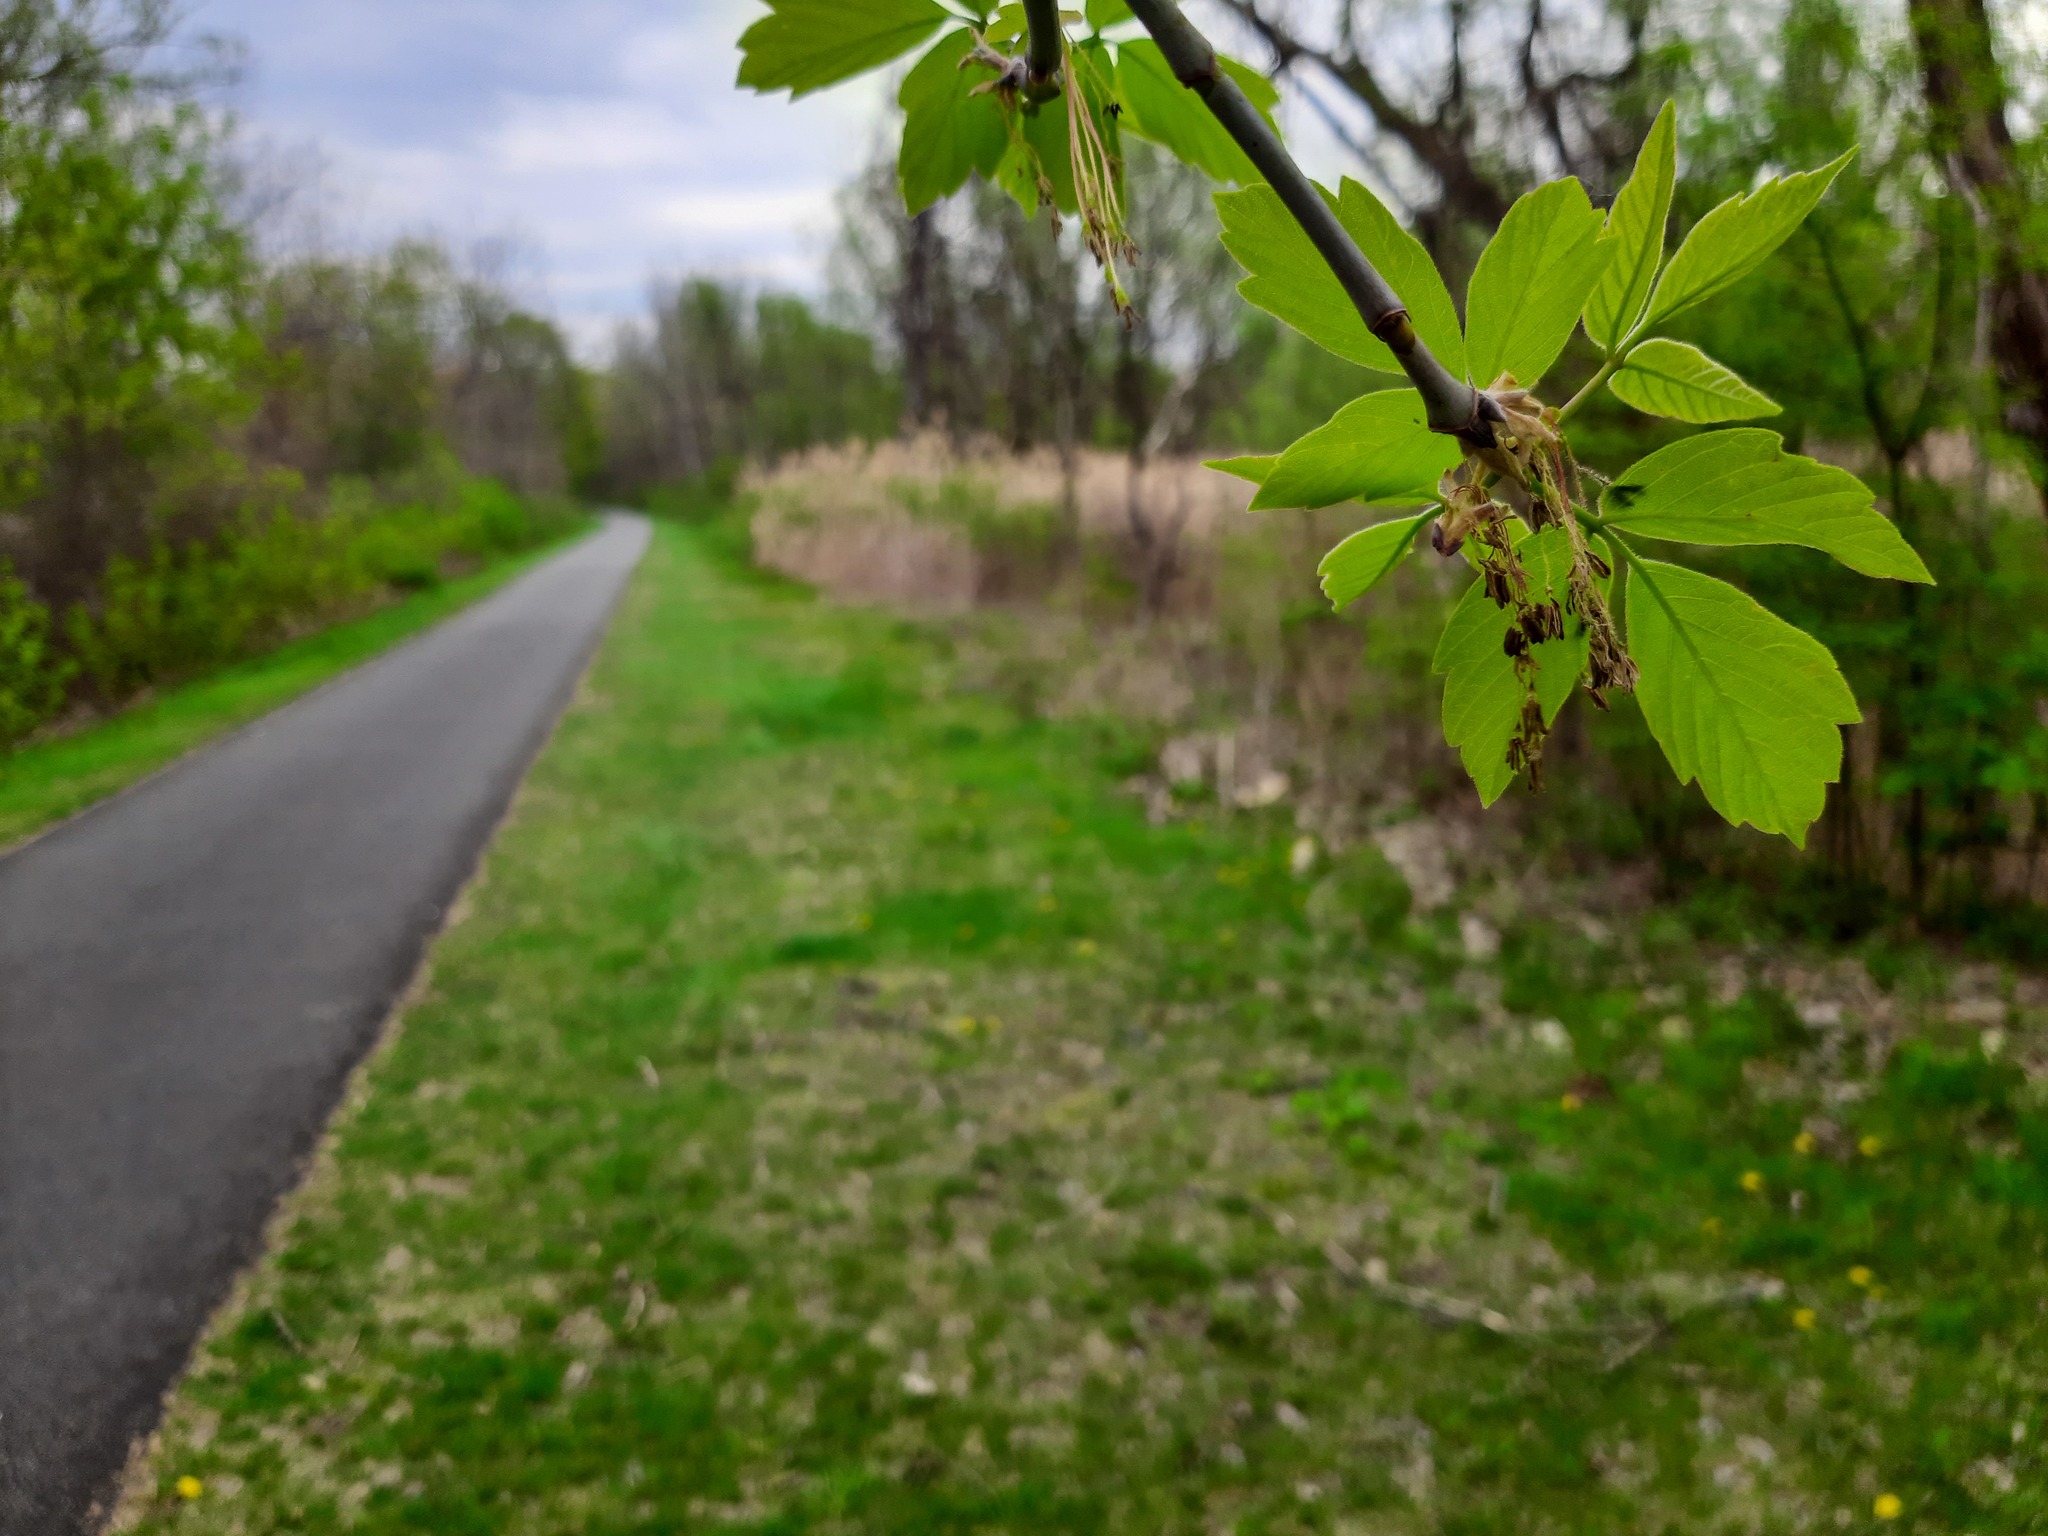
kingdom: Plantae
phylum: Tracheophyta
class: Magnoliopsida
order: Sapindales
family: Sapindaceae
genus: Acer
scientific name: Acer negundo
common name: Ashleaf maple
